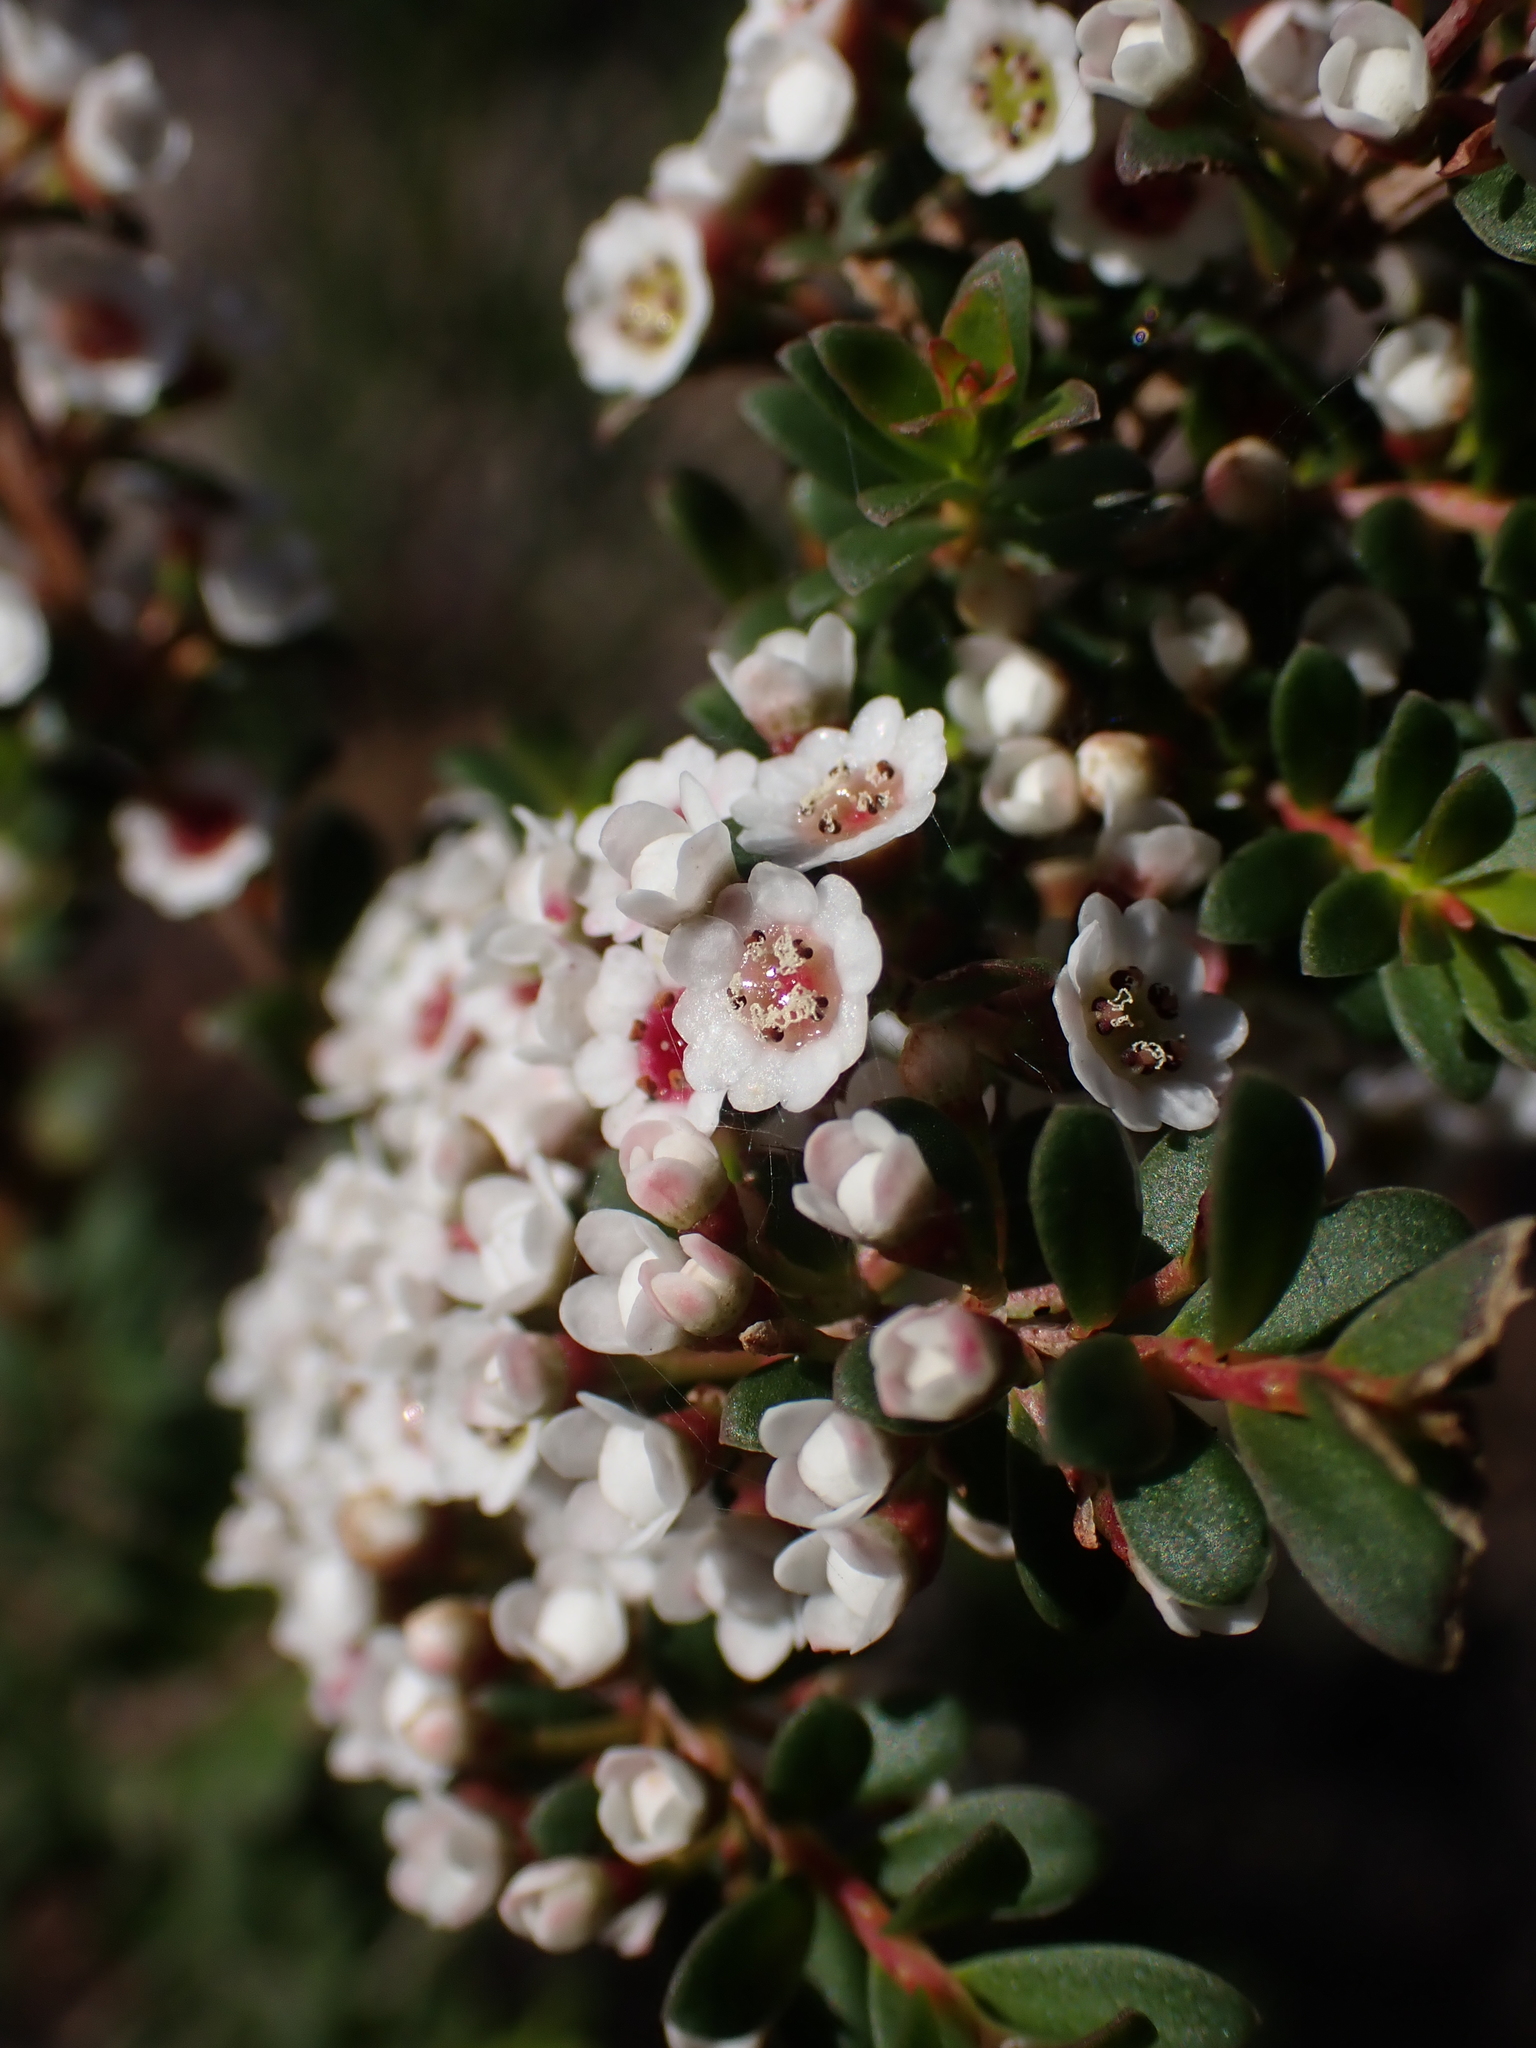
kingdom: Plantae
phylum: Tracheophyta
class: Magnoliopsida
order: Myrtales
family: Myrtaceae
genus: Thryptomene
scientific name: Thryptomene calycina
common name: Grampians thryptomene
